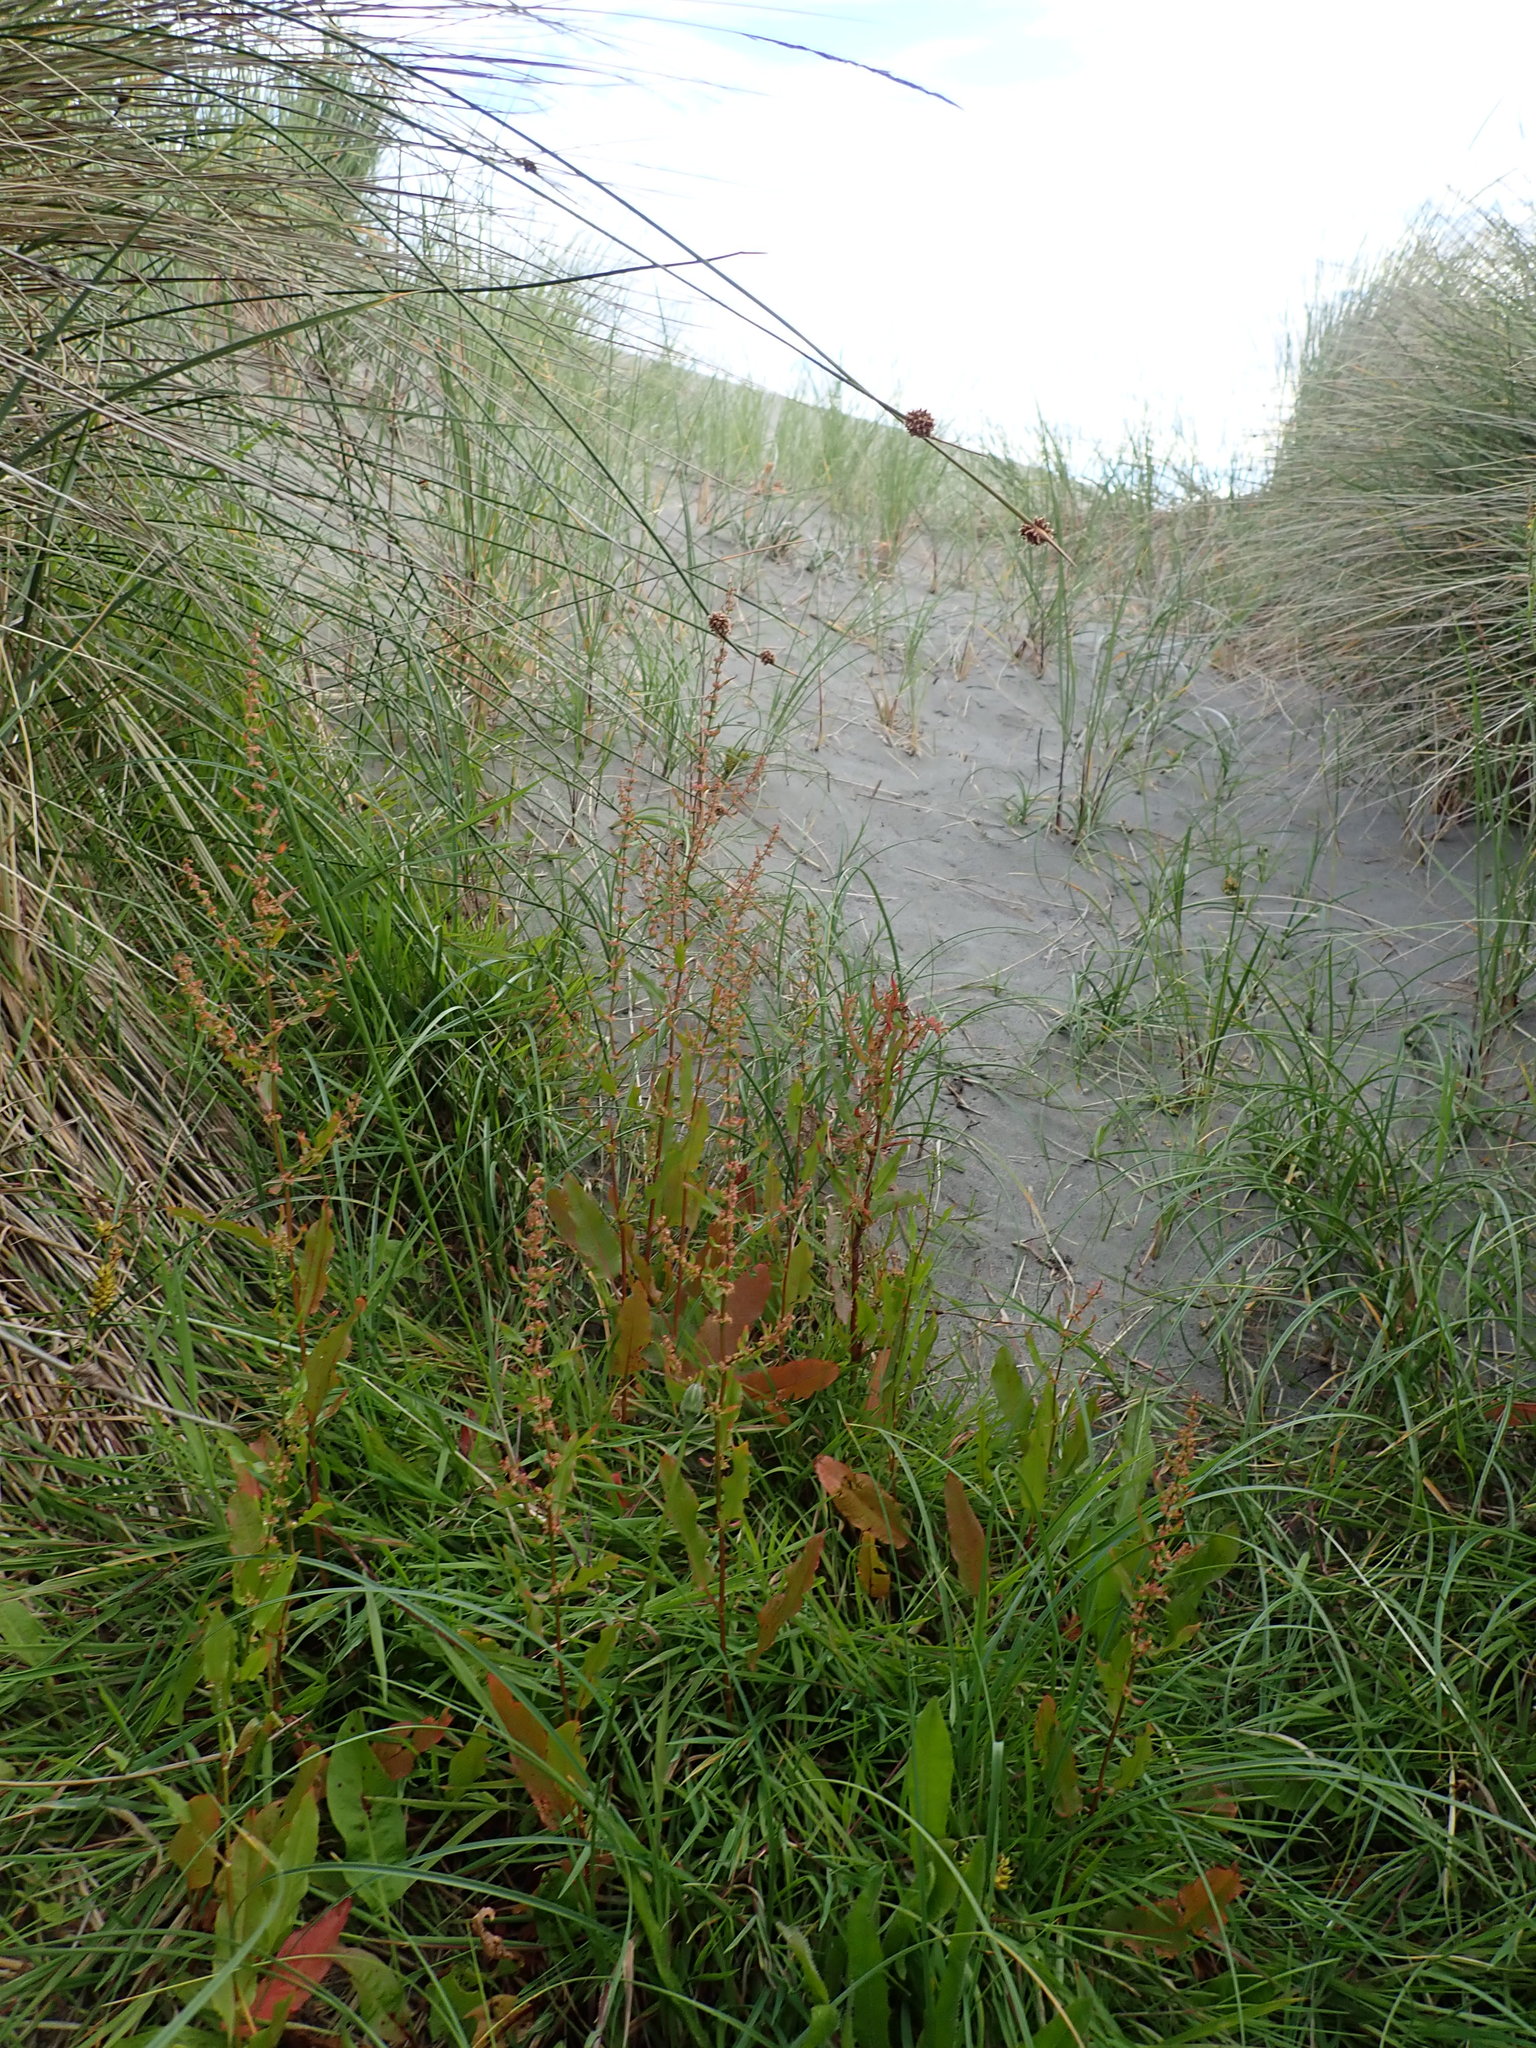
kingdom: Plantae
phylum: Tracheophyta
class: Magnoliopsida
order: Caryophyllales
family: Polygonaceae
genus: Rumex
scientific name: Rumex crispus
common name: Curled dock
